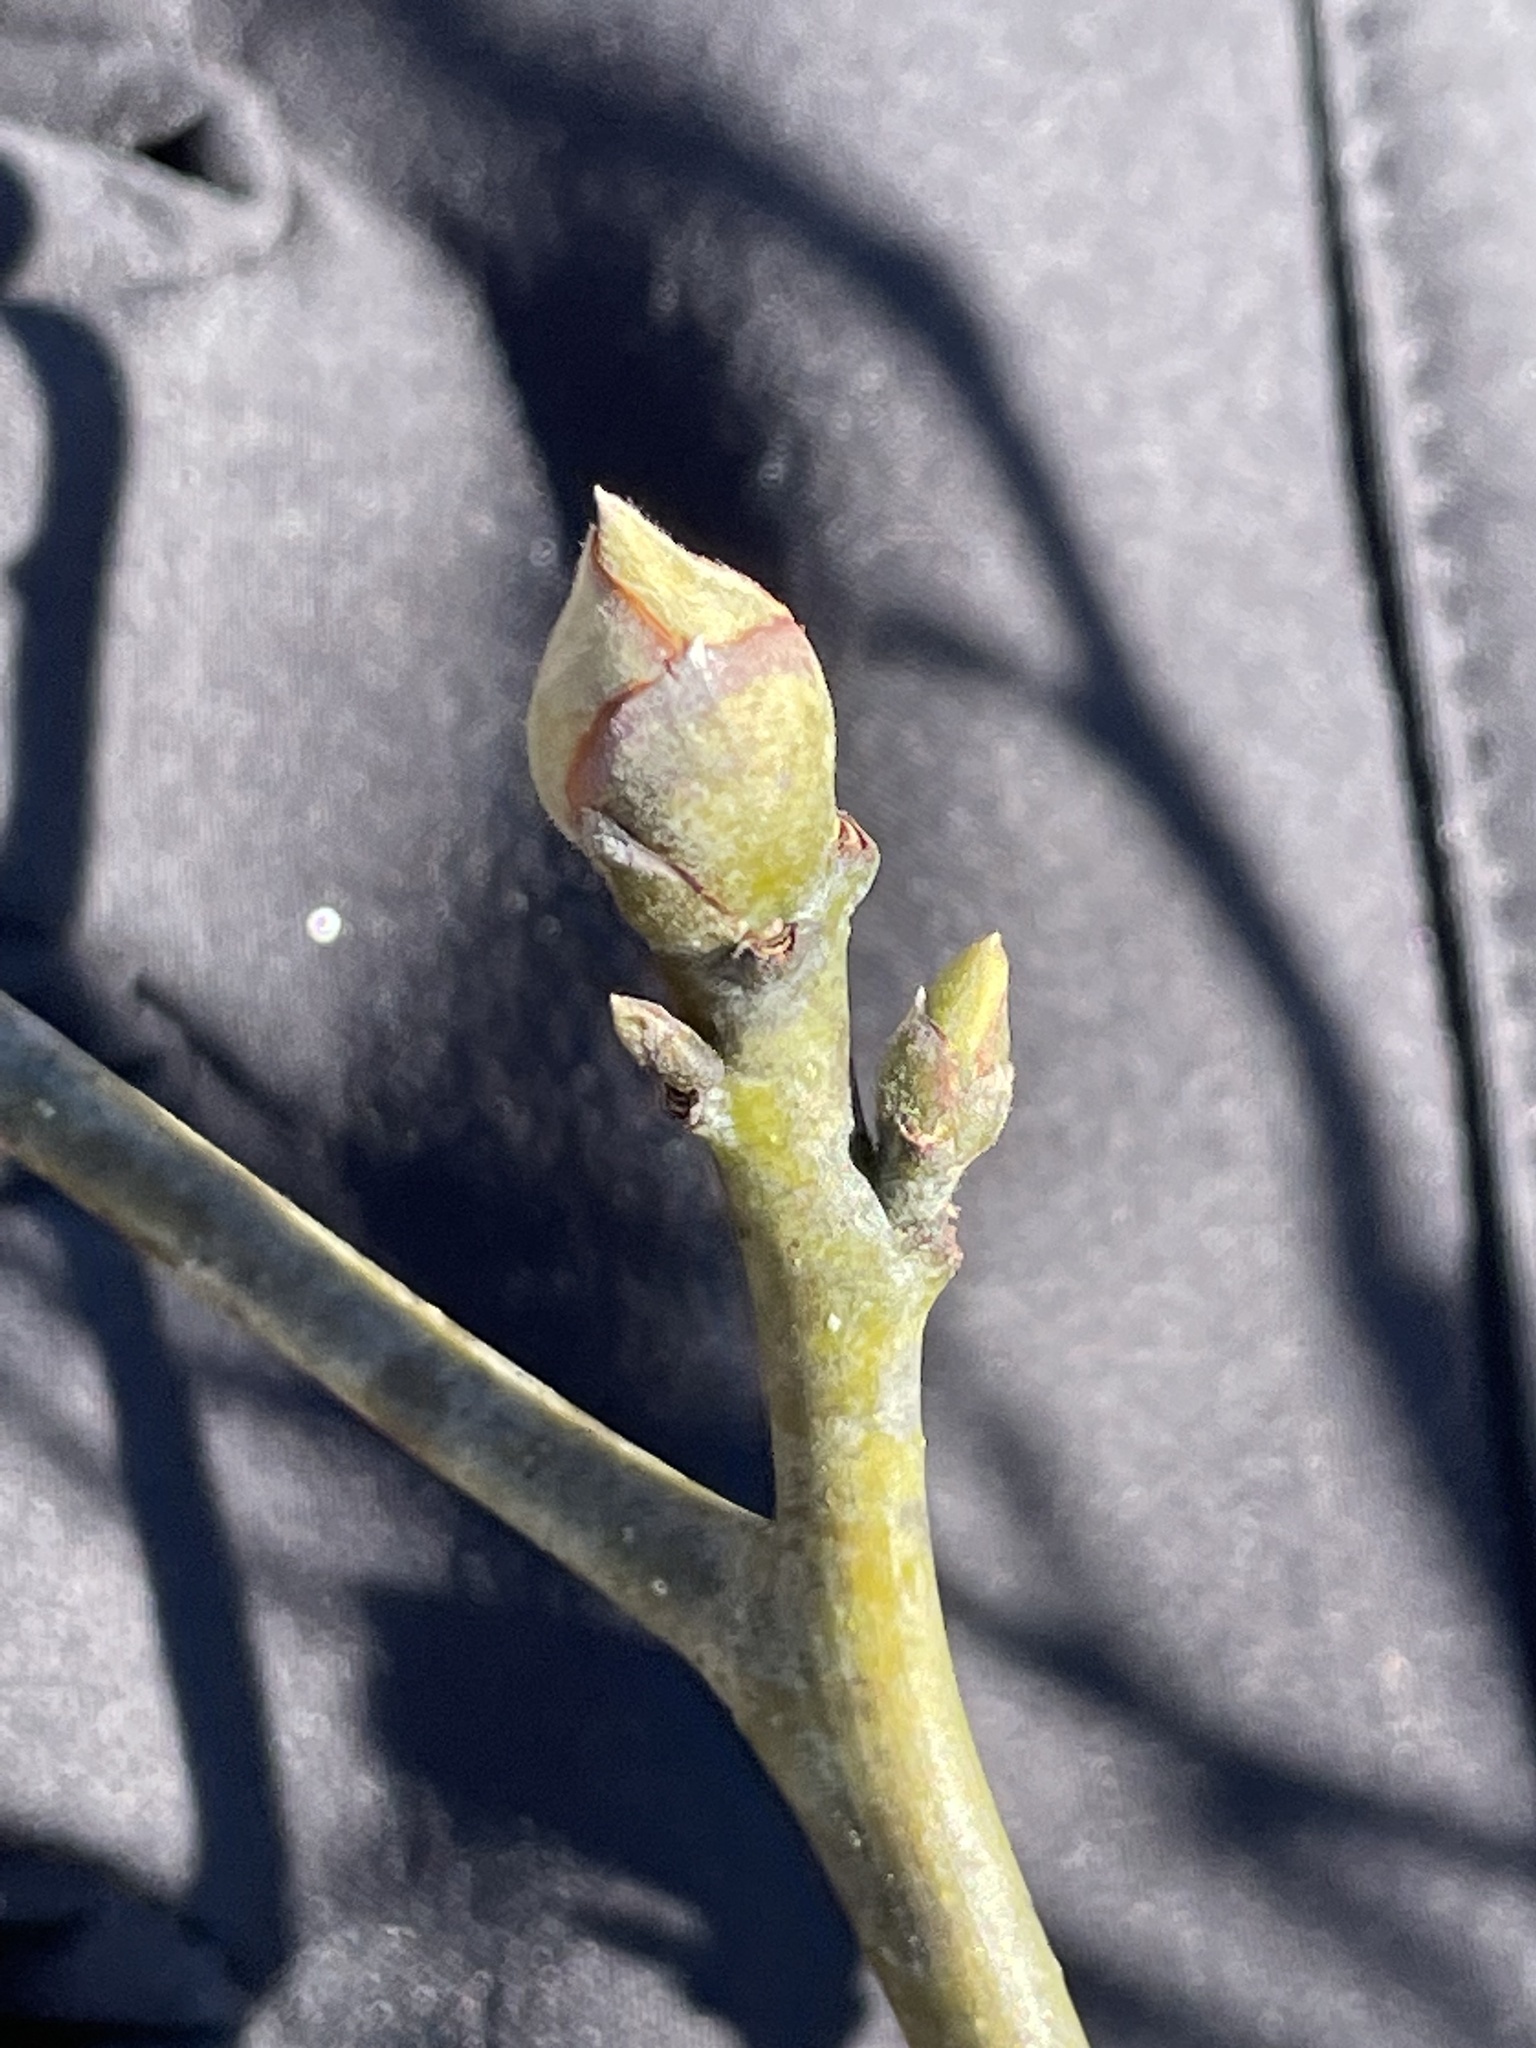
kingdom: Plantae
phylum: Tracheophyta
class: Magnoliopsida
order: Laurales
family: Lauraceae
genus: Sassafras
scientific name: Sassafras albidum
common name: Sassafras
